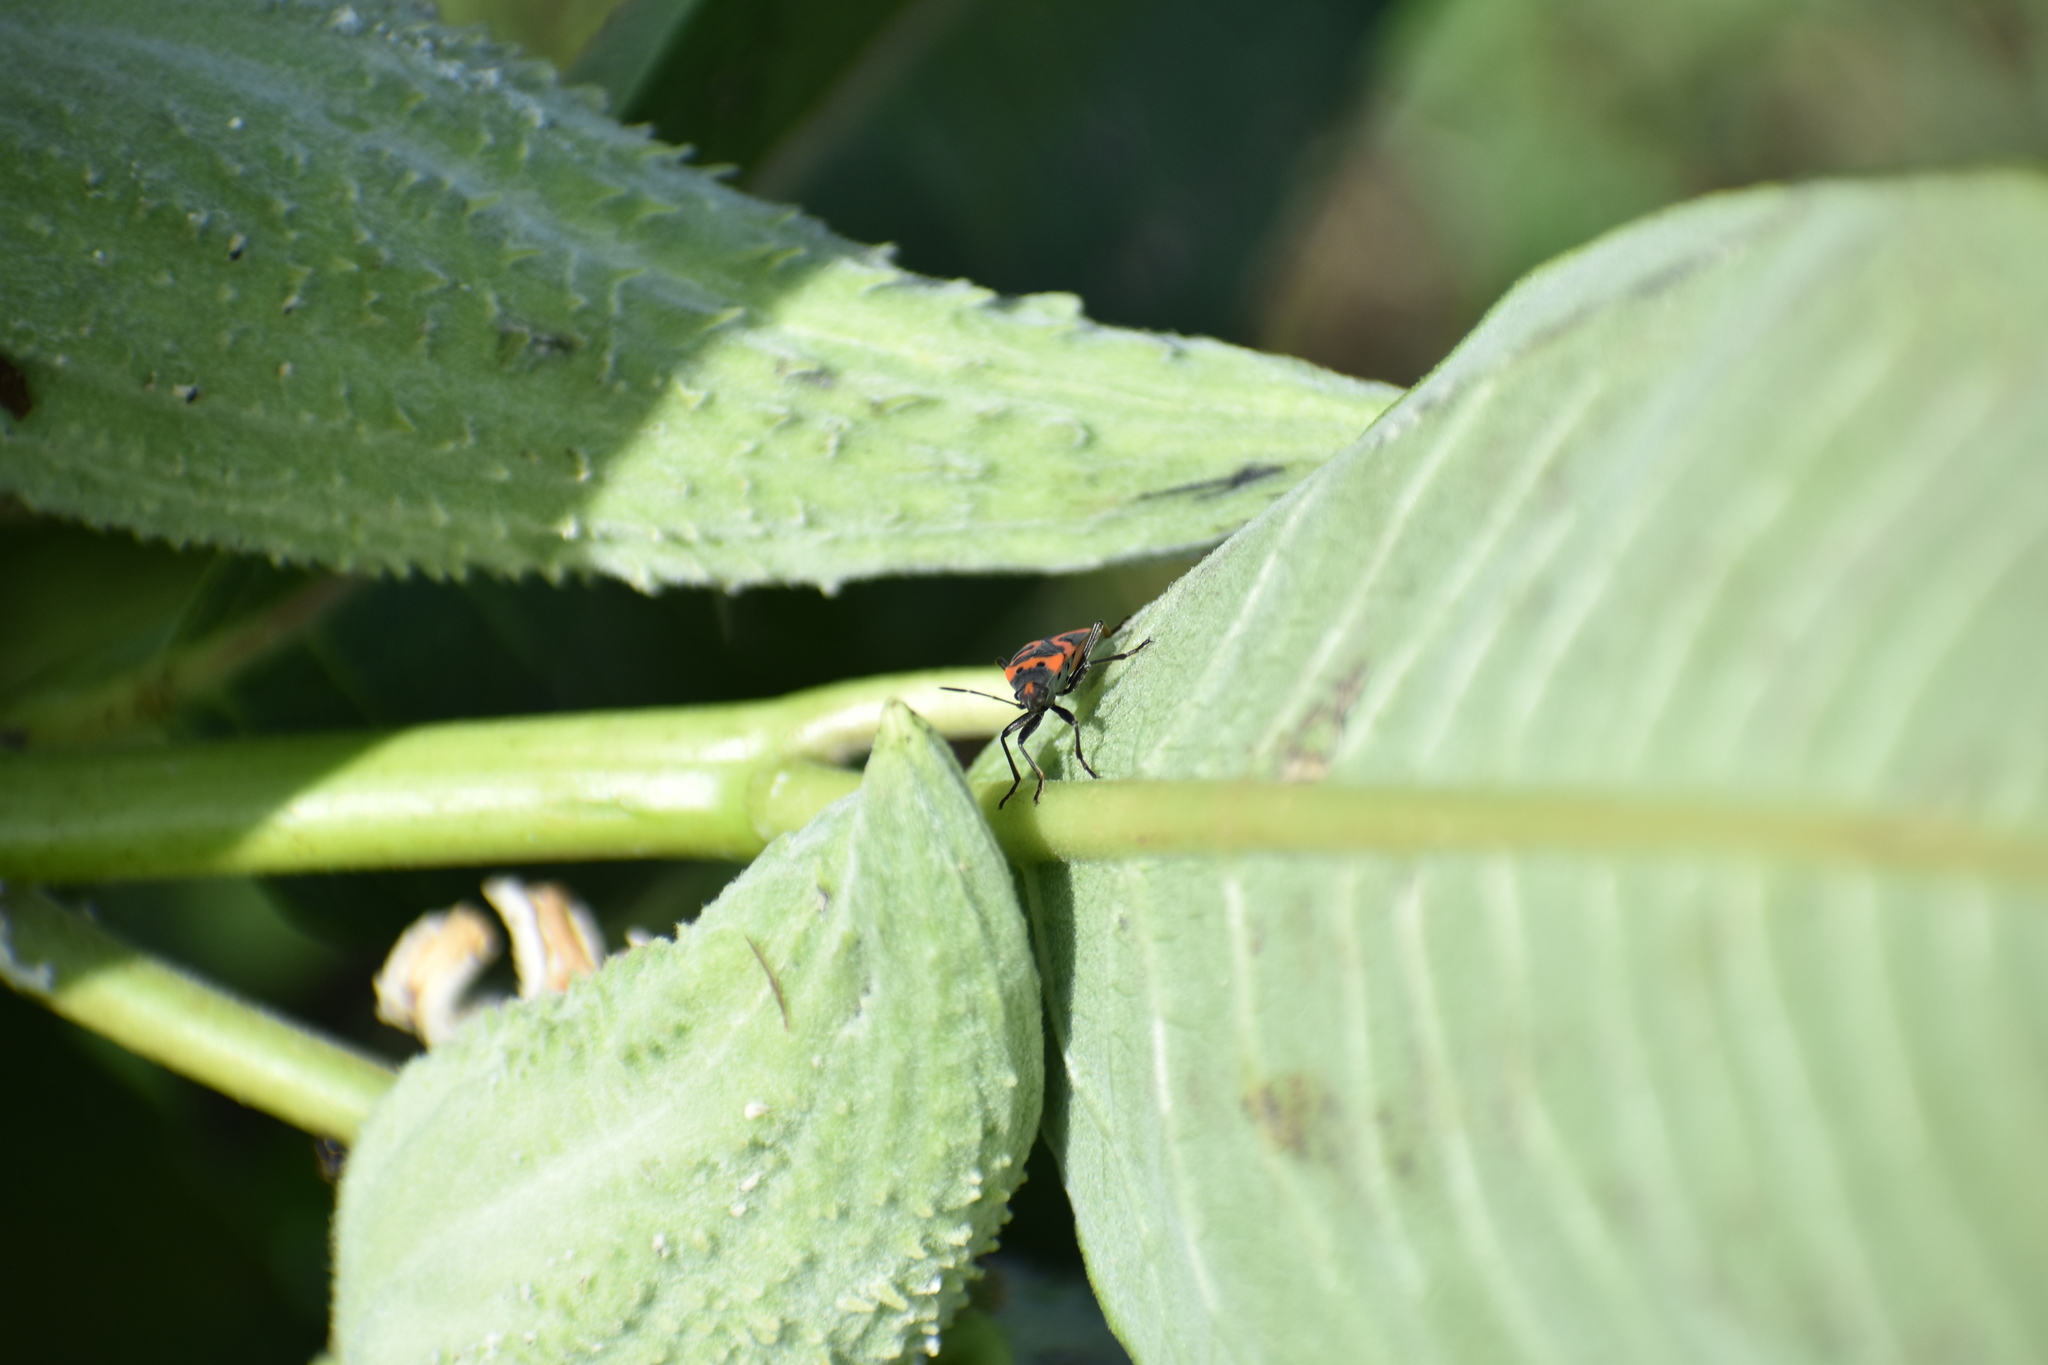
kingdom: Animalia
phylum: Arthropoda
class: Insecta
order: Hemiptera
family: Lygaeidae
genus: Lygaeus
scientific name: Lygaeus kalmii
